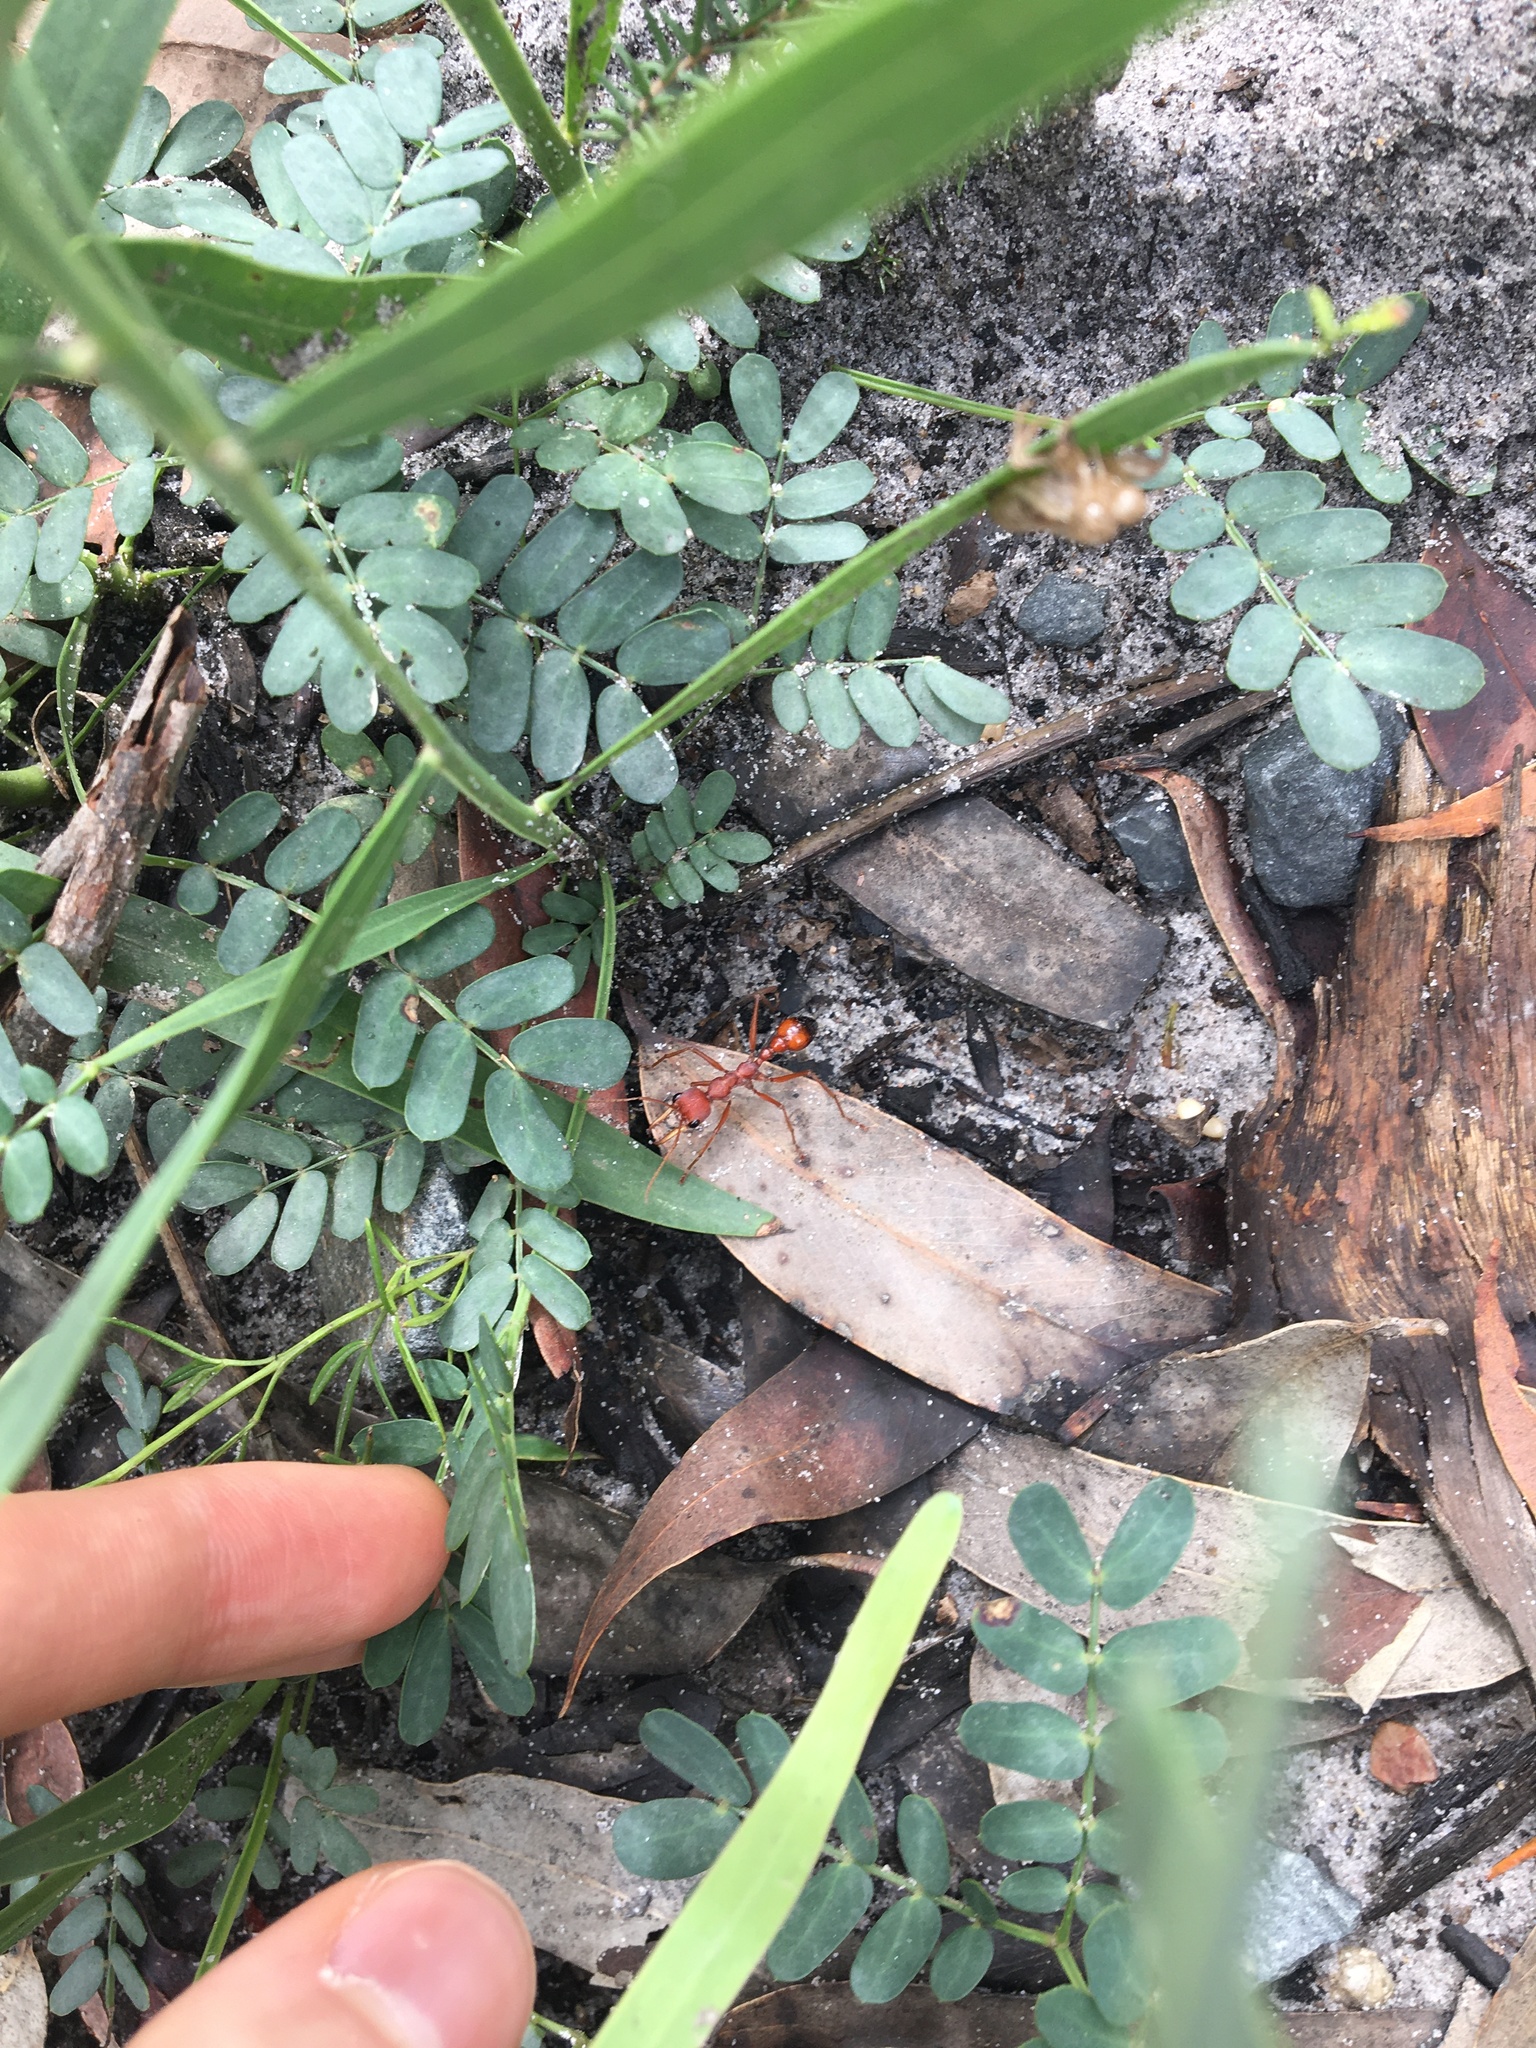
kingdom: Animalia
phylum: Arthropoda
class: Insecta
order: Hymenoptera
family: Formicidae
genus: Myrmecia
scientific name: Myrmecia gulosa
